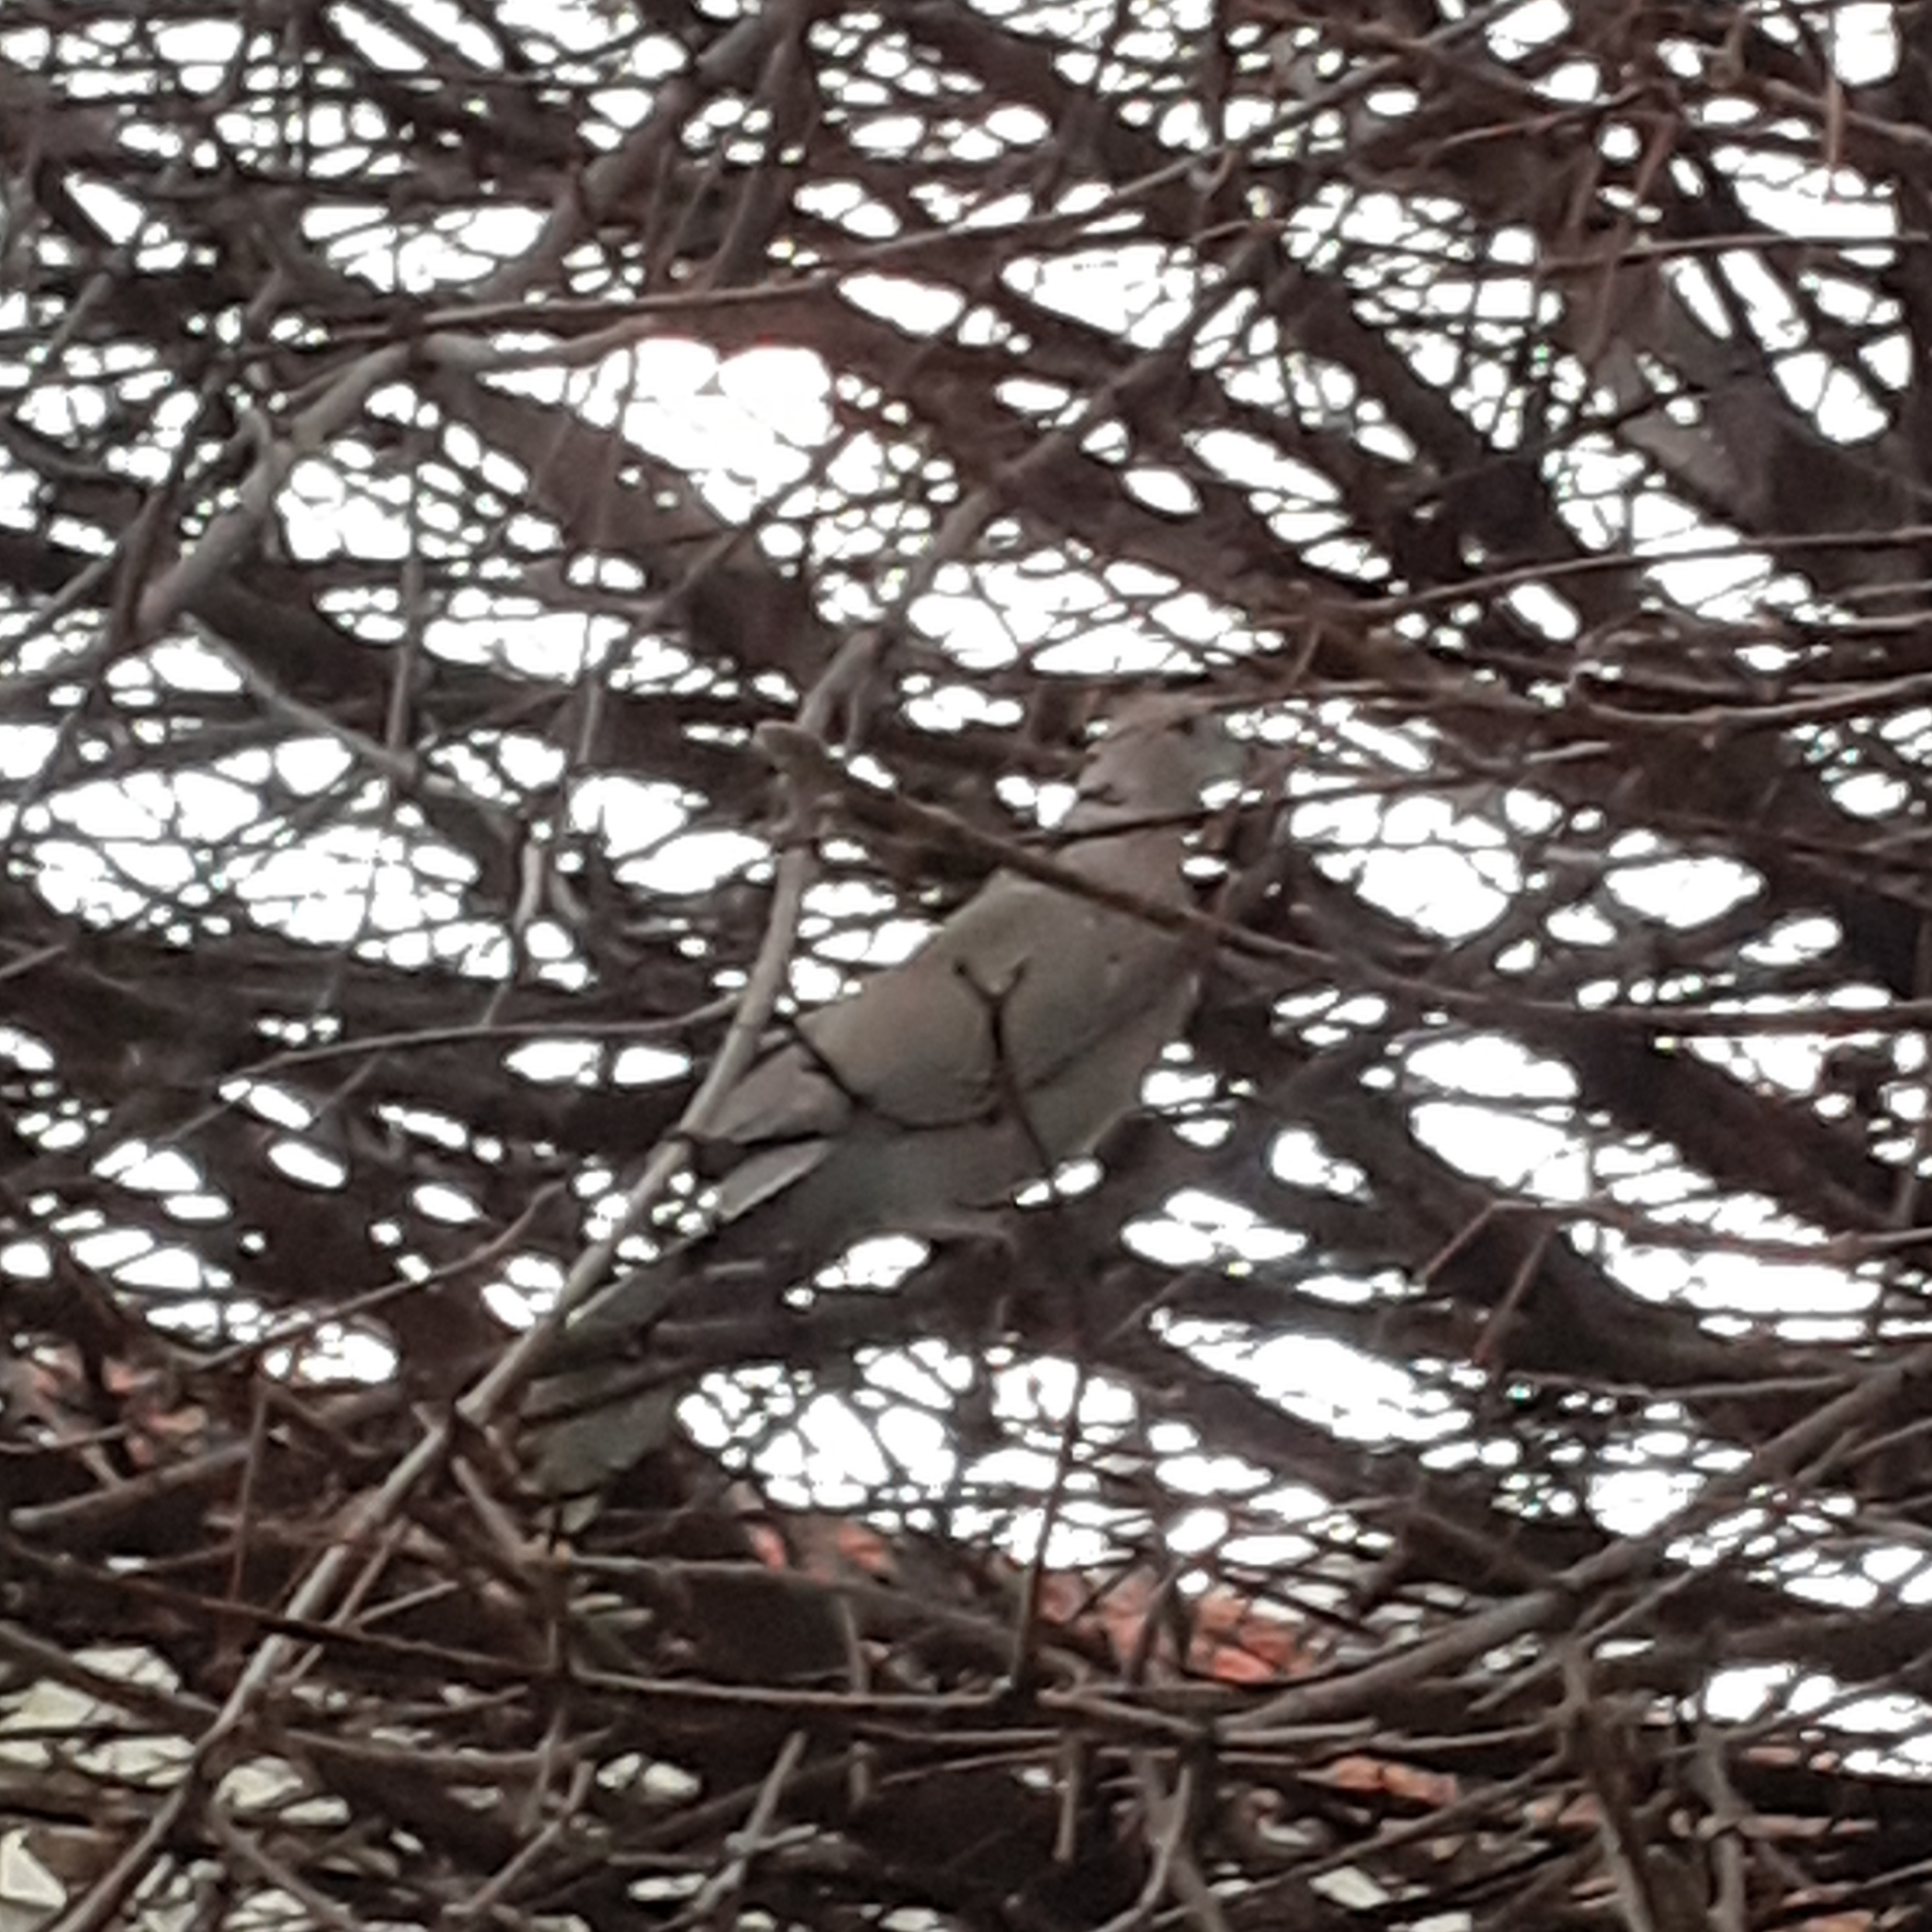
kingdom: Animalia
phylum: Chordata
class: Aves
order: Columbiformes
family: Columbidae
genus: Streptopelia
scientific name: Streptopelia decaocto
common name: Eurasian collared dove
